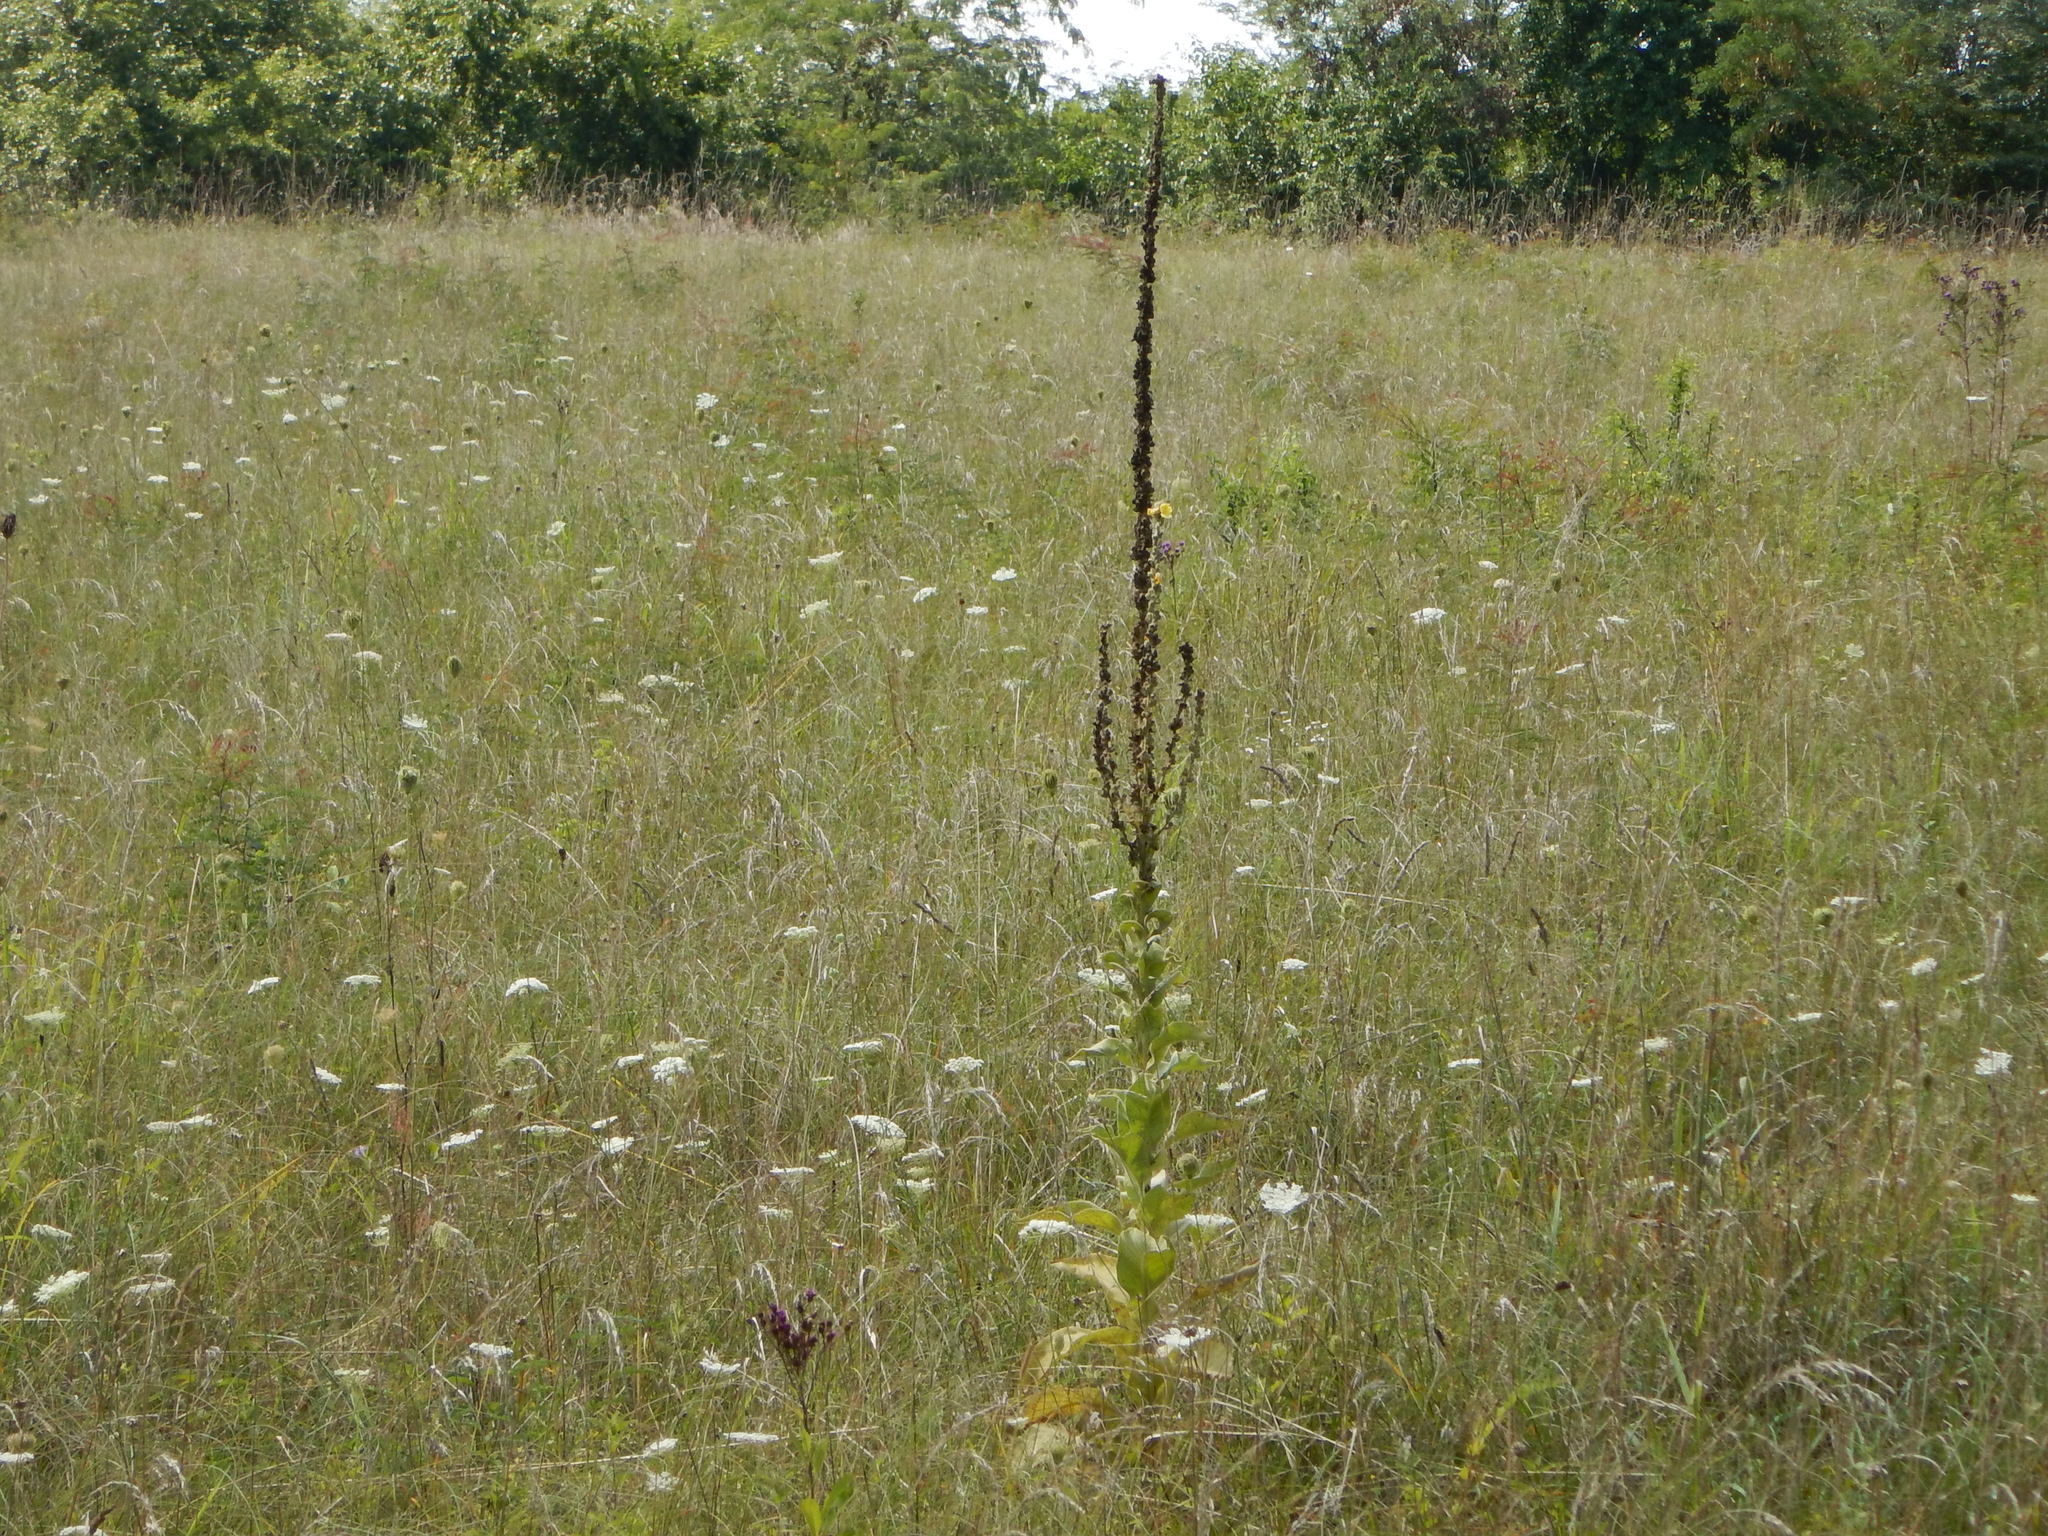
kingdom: Plantae
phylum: Tracheophyta
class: Magnoliopsida
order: Lamiales
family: Scrophulariaceae
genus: Verbascum
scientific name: Verbascum thapsus
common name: Common mullein
